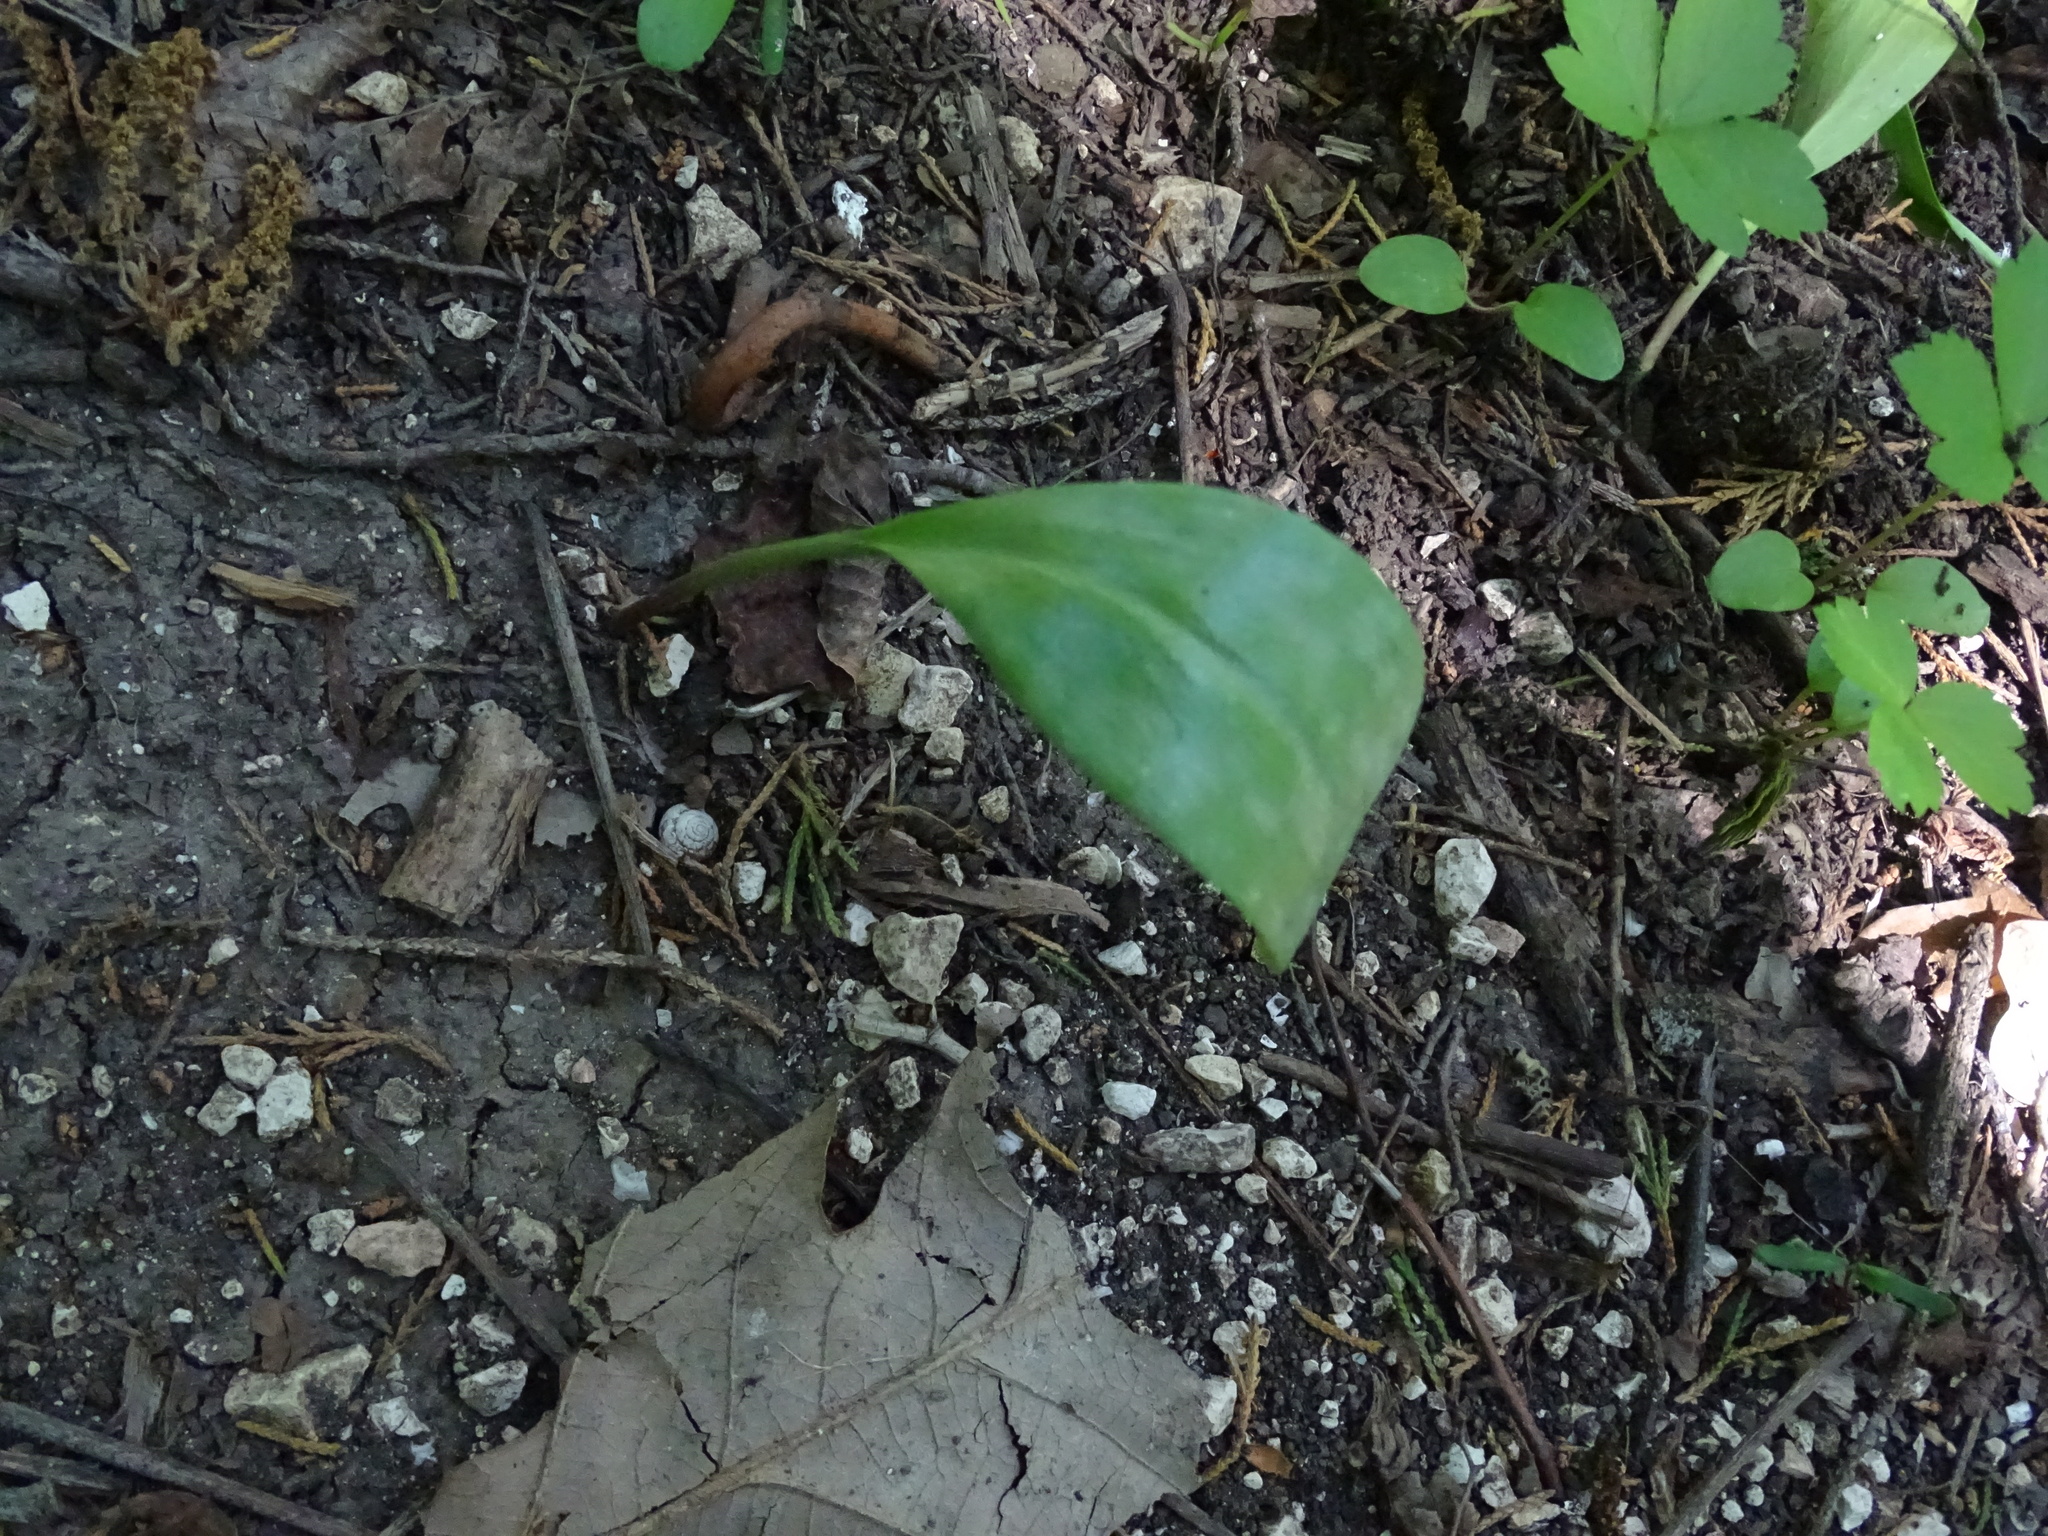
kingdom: Plantae
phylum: Tracheophyta
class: Liliopsida
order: Liliales
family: Liliaceae
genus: Erythronium
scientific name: Erythronium albidum
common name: White trout-lily
